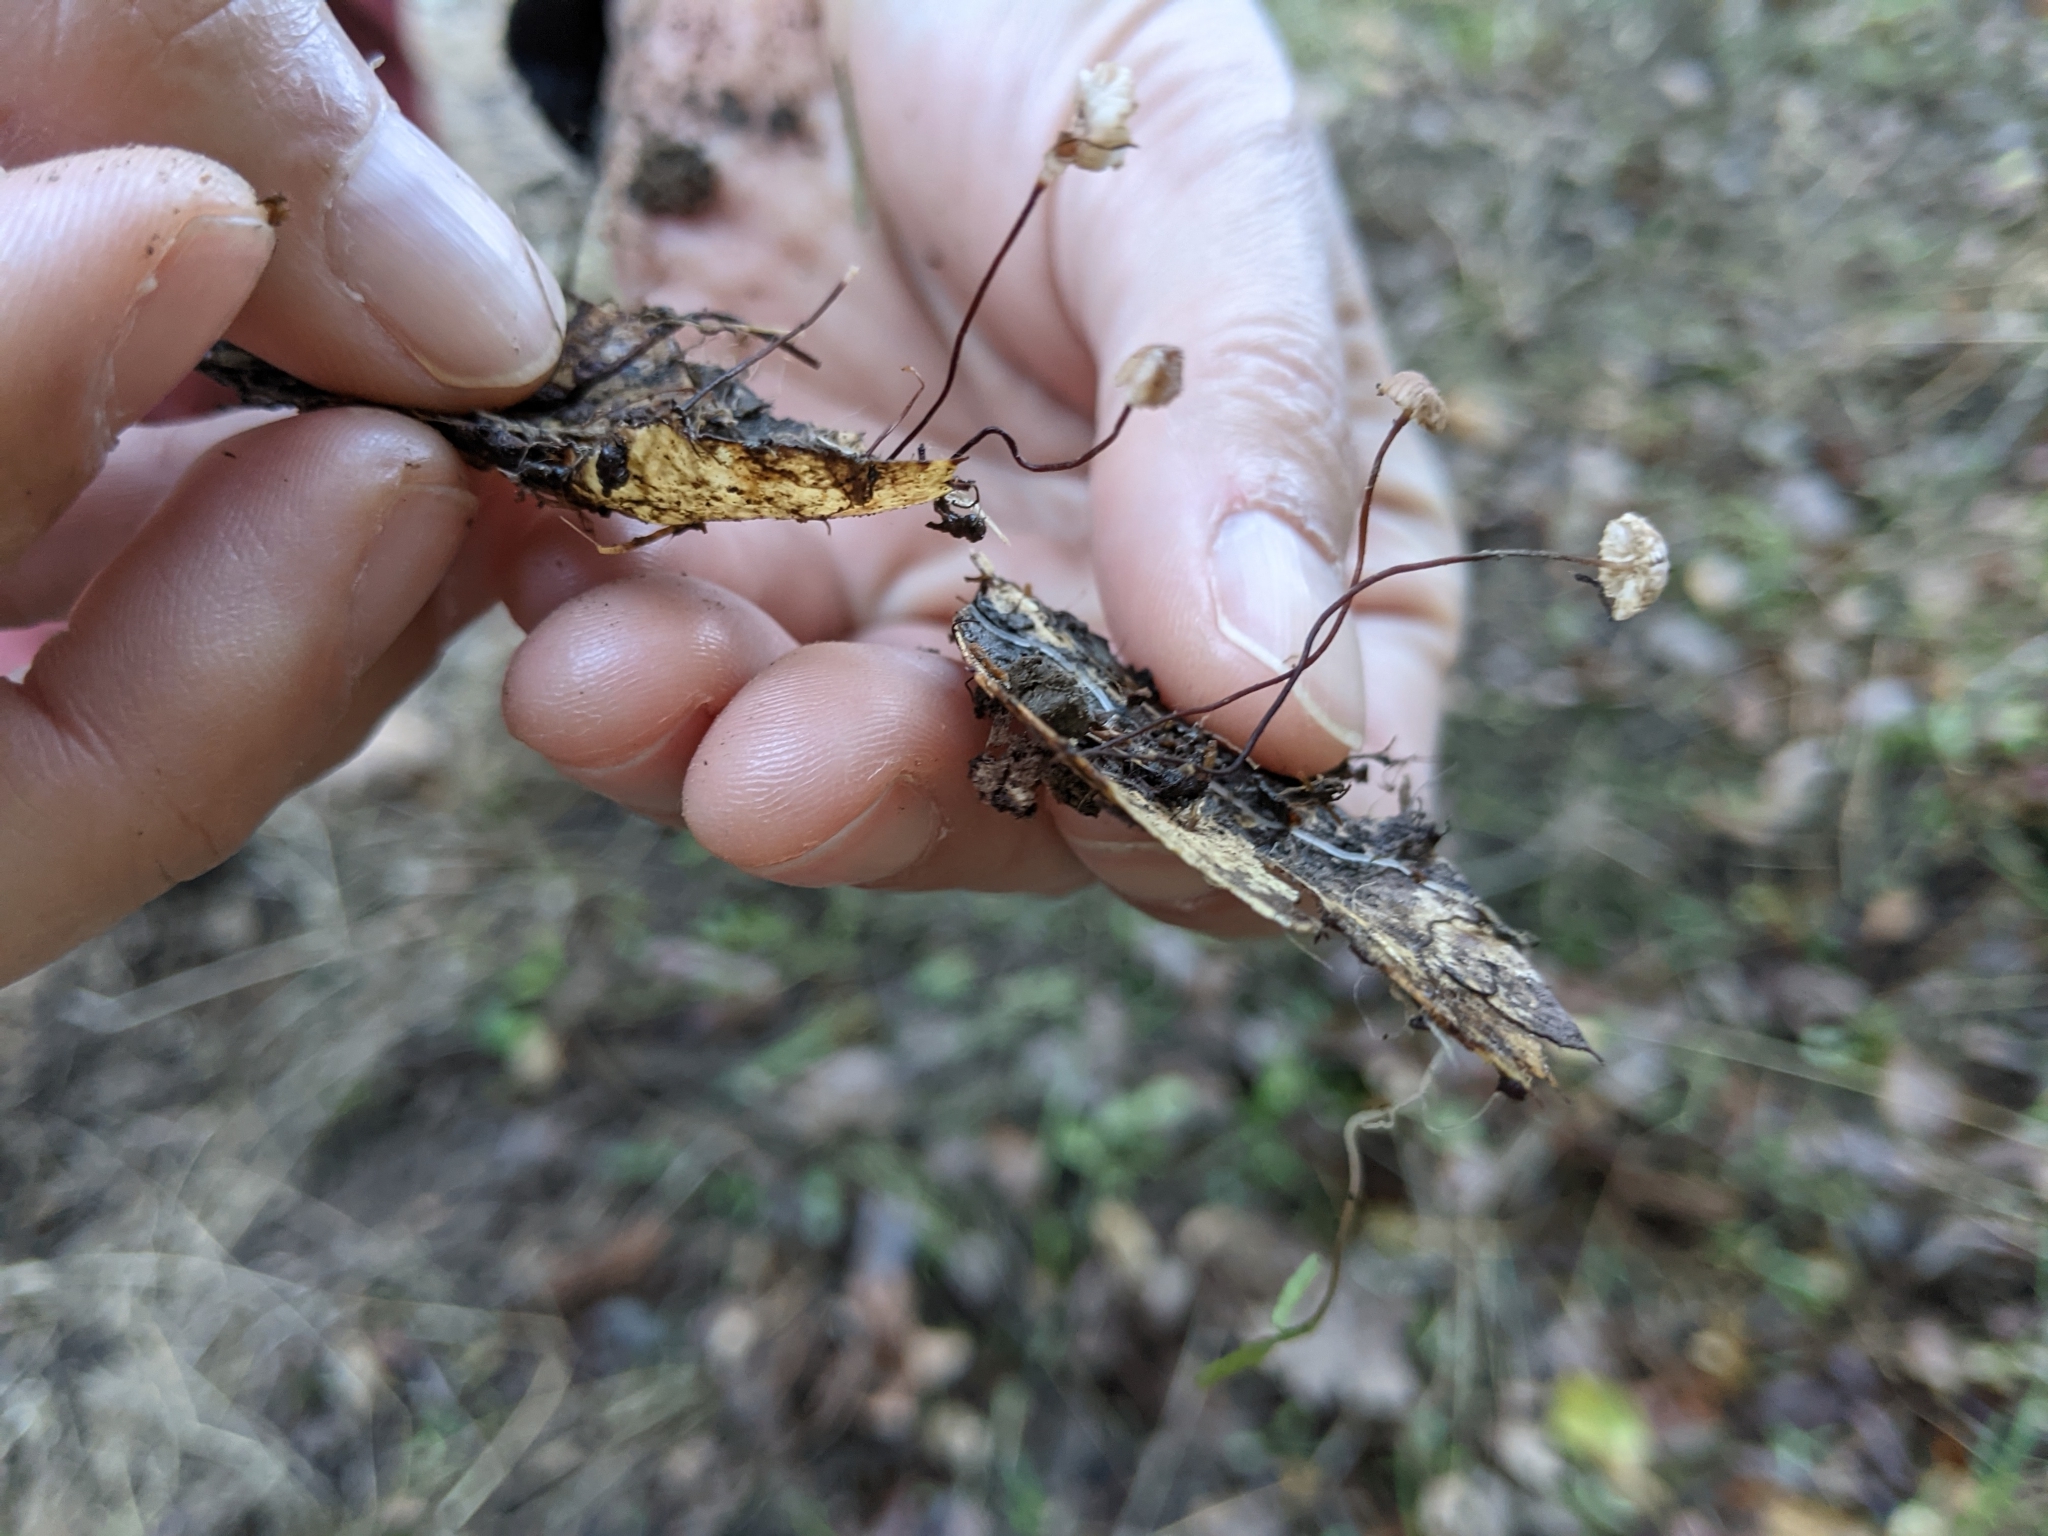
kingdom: Fungi
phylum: Basidiomycota
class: Agaricomycetes
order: Agaricales
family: Omphalotaceae
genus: Collybiopsis
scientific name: Collybiopsis quercophila
